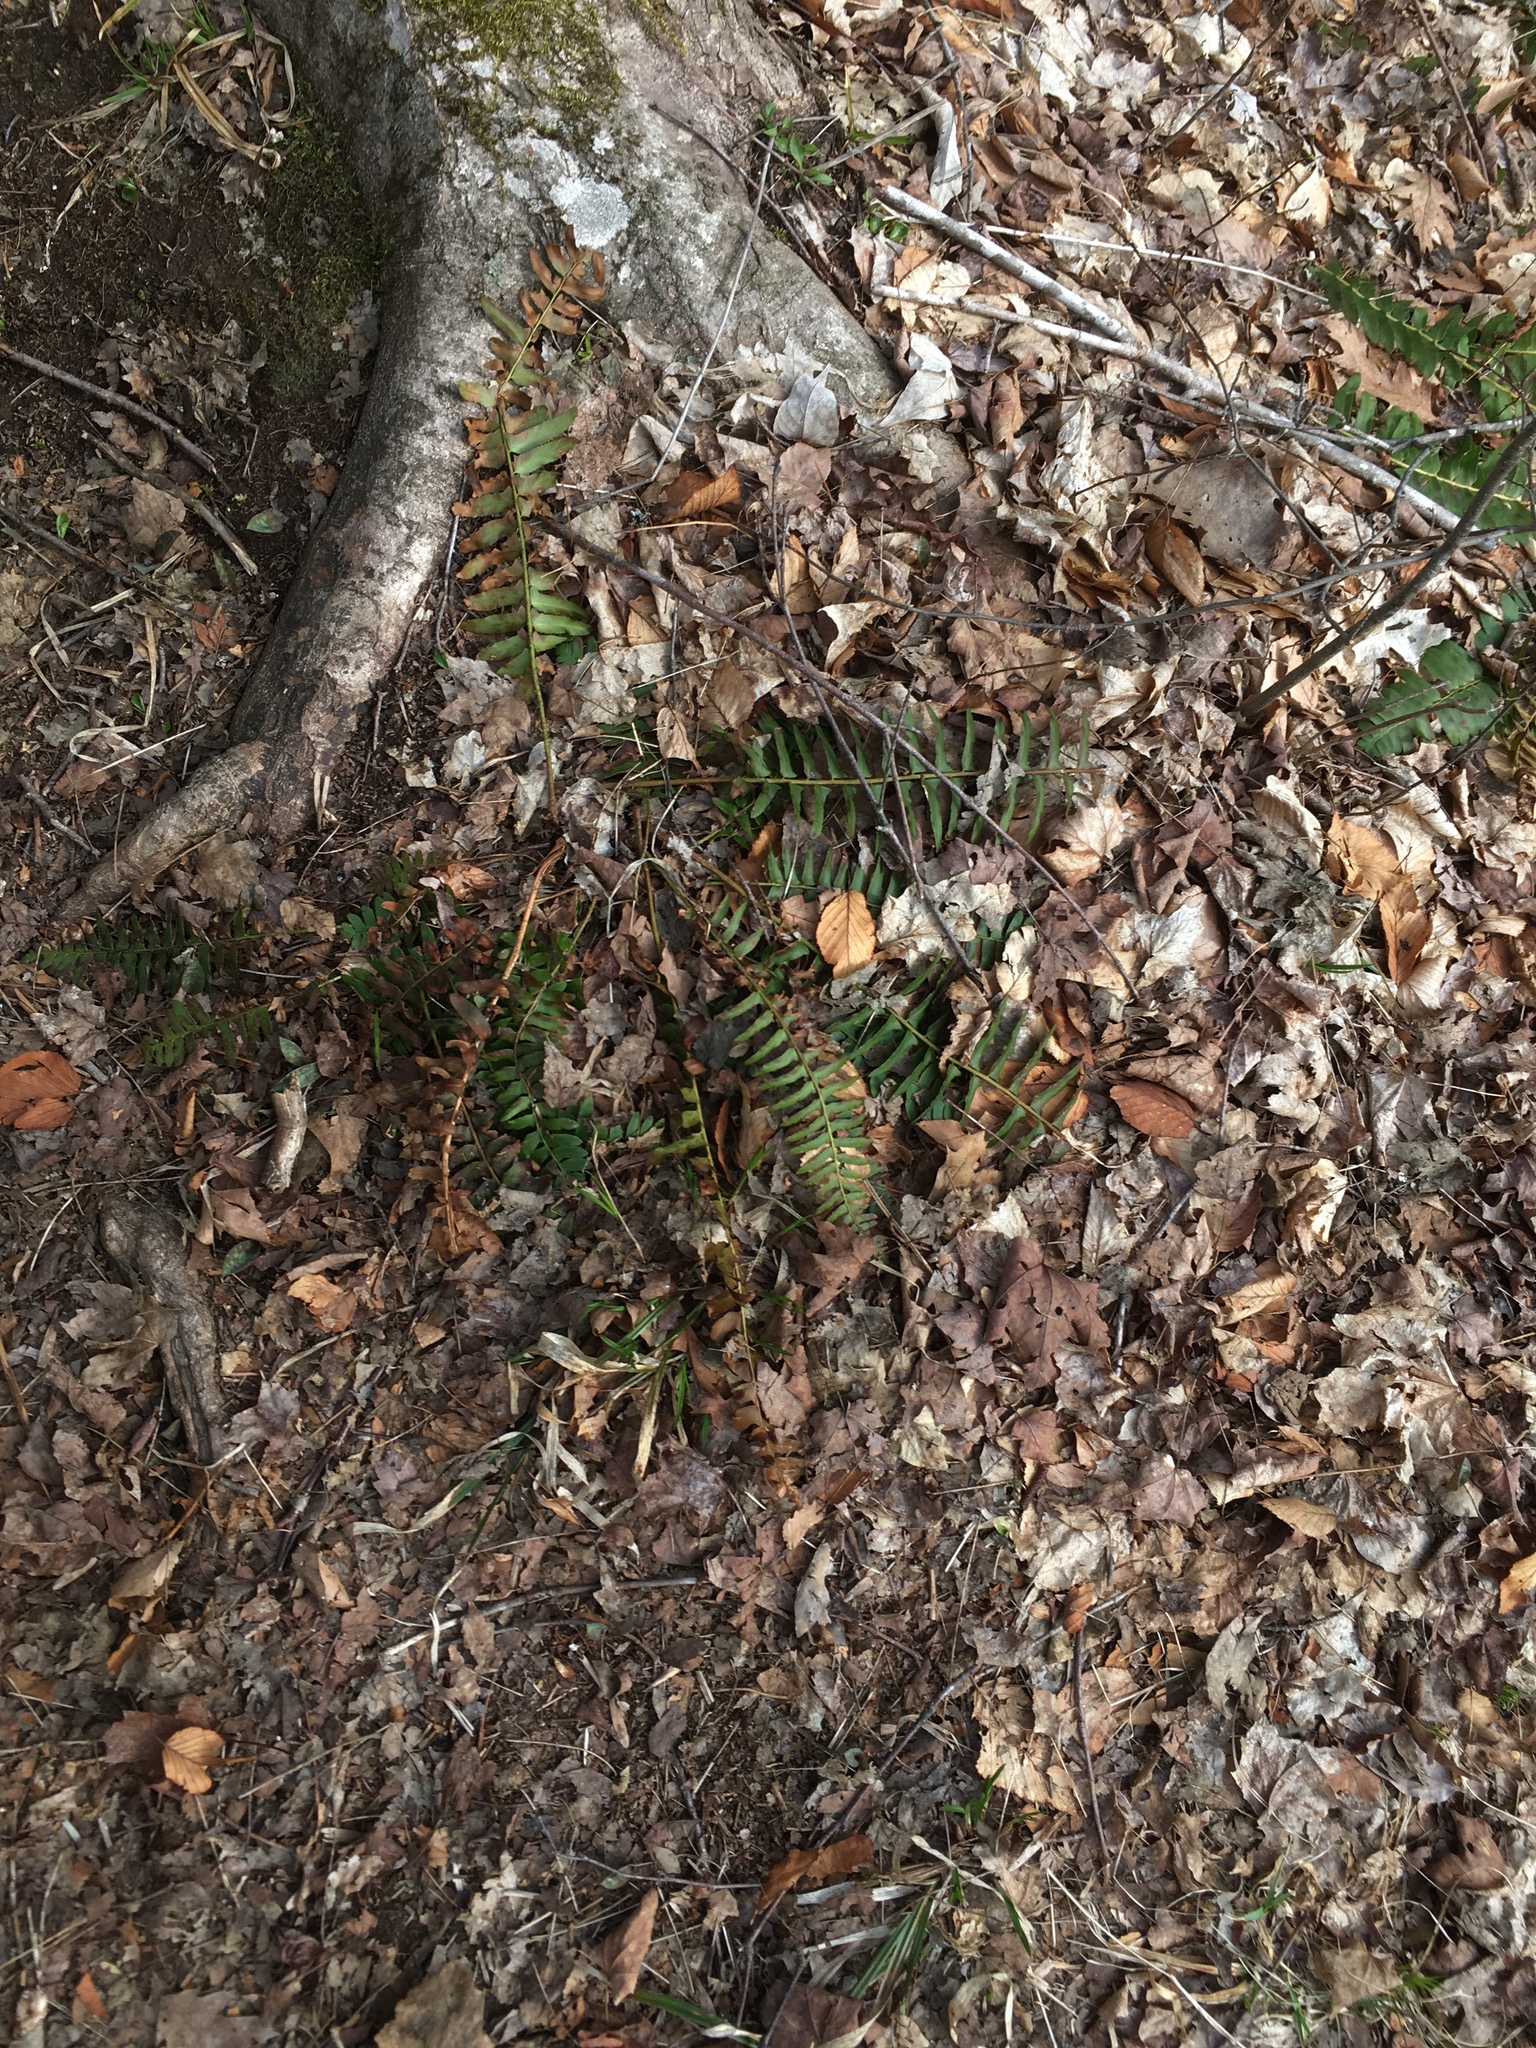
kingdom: Plantae
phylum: Tracheophyta
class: Polypodiopsida
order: Polypodiales
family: Dryopteridaceae
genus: Polystichum
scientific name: Polystichum acrostichoides
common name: Christmas fern
